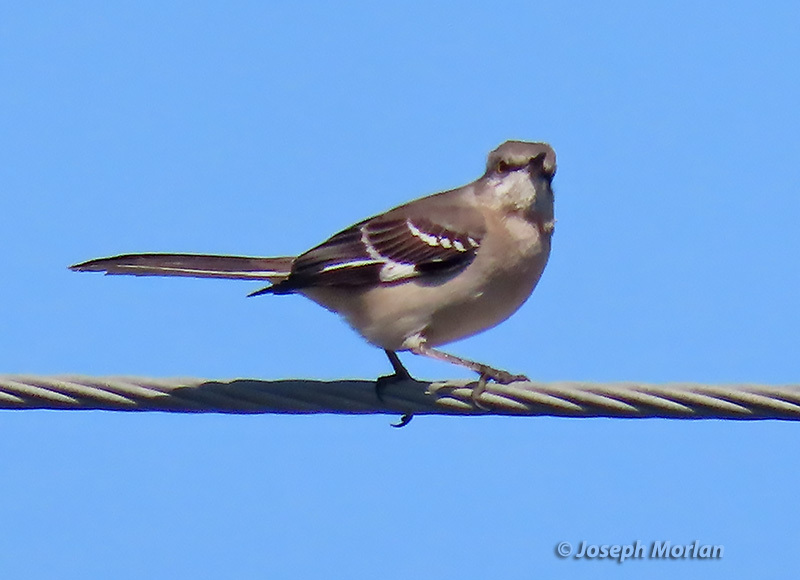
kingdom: Animalia
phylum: Chordata
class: Aves
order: Passeriformes
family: Mimidae
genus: Mimus
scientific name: Mimus polyglottos
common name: Northern mockingbird
